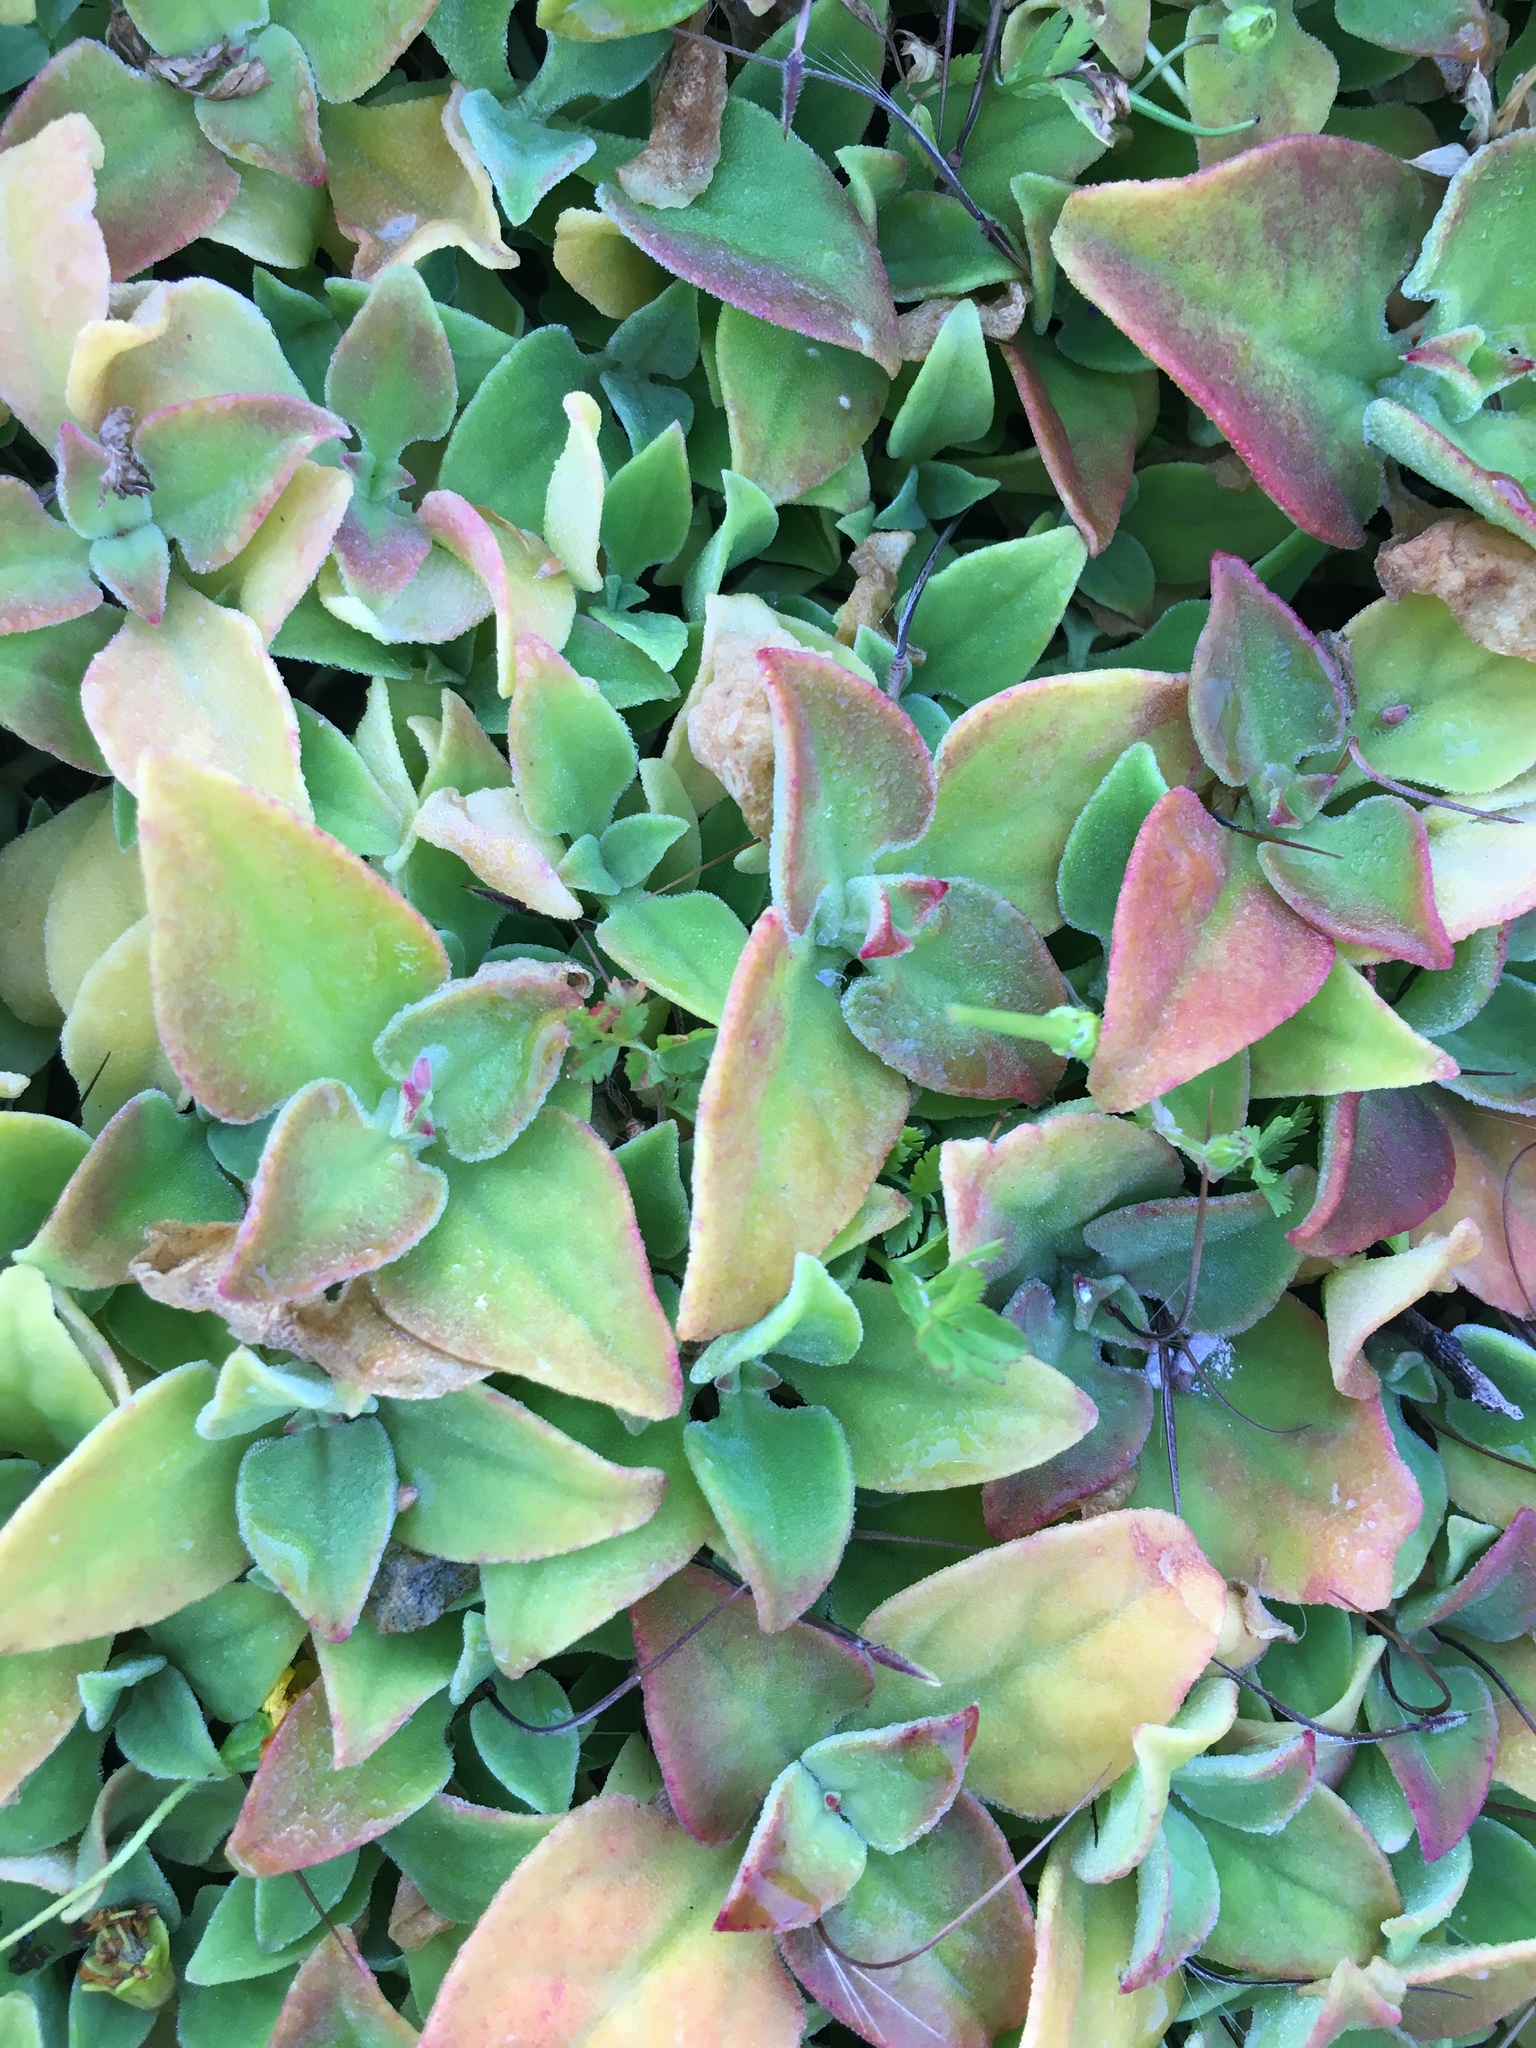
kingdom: Plantae
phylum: Tracheophyta
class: Magnoliopsida
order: Caryophyllales
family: Aizoaceae
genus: Mesembryanthemum
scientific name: Mesembryanthemum crystallinum
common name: Common iceplant
